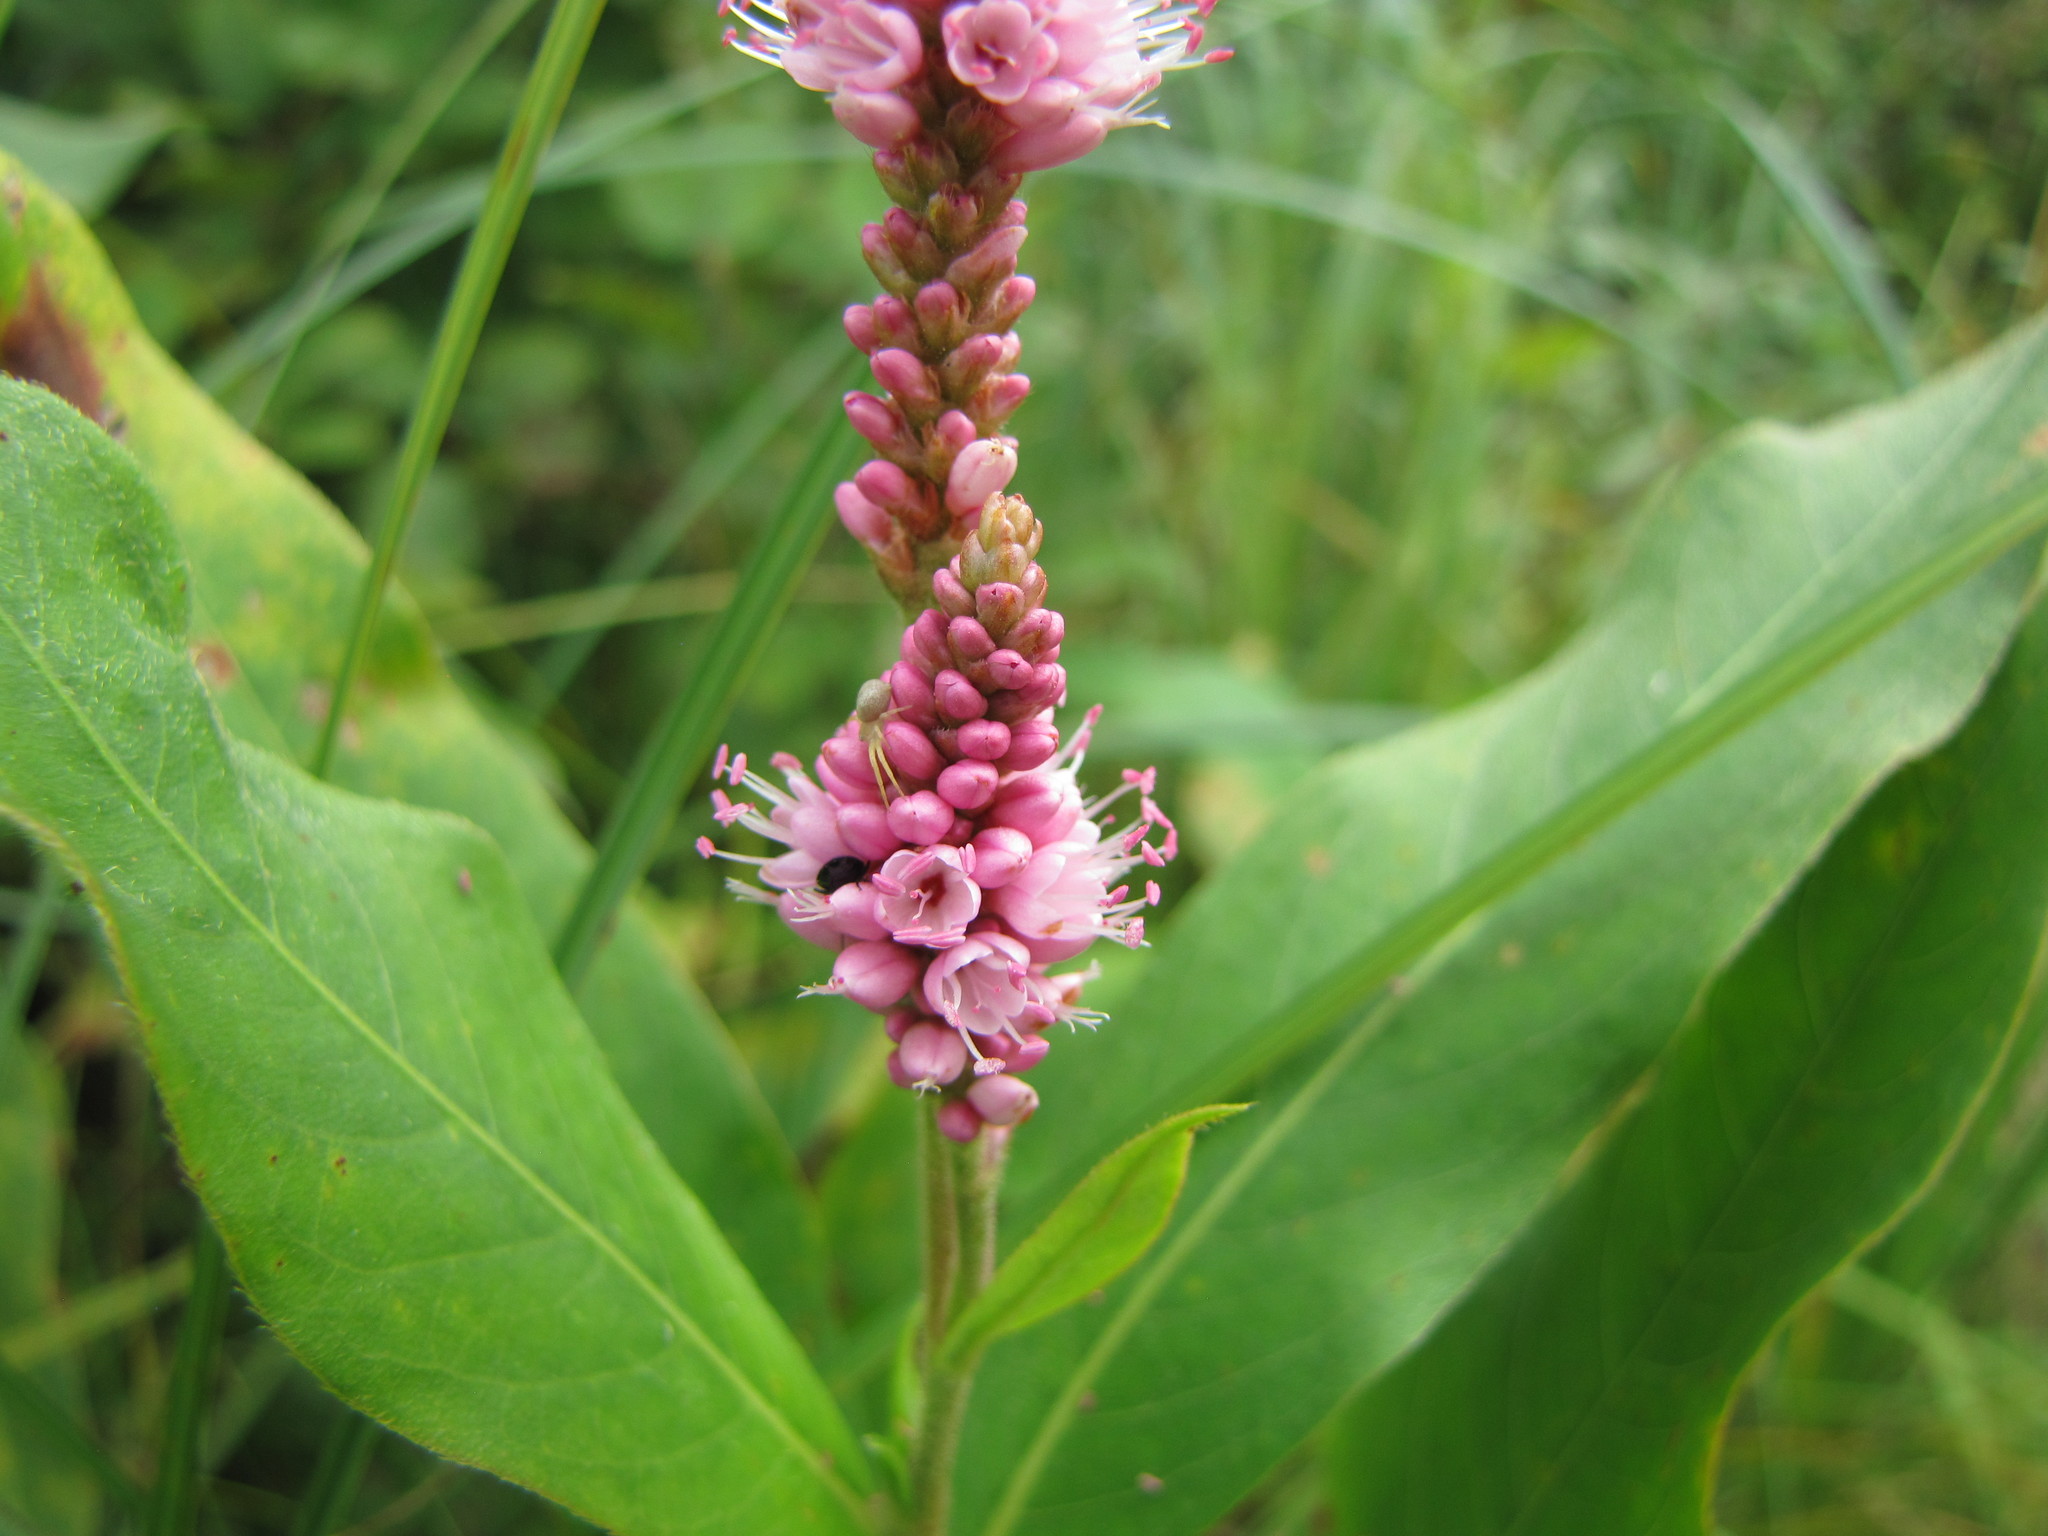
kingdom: Plantae
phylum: Tracheophyta
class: Magnoliopsida
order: Caryophyllales
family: Polygonaceae
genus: Persicaria
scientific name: Persicaria amphibia
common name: Amphibious bistort
